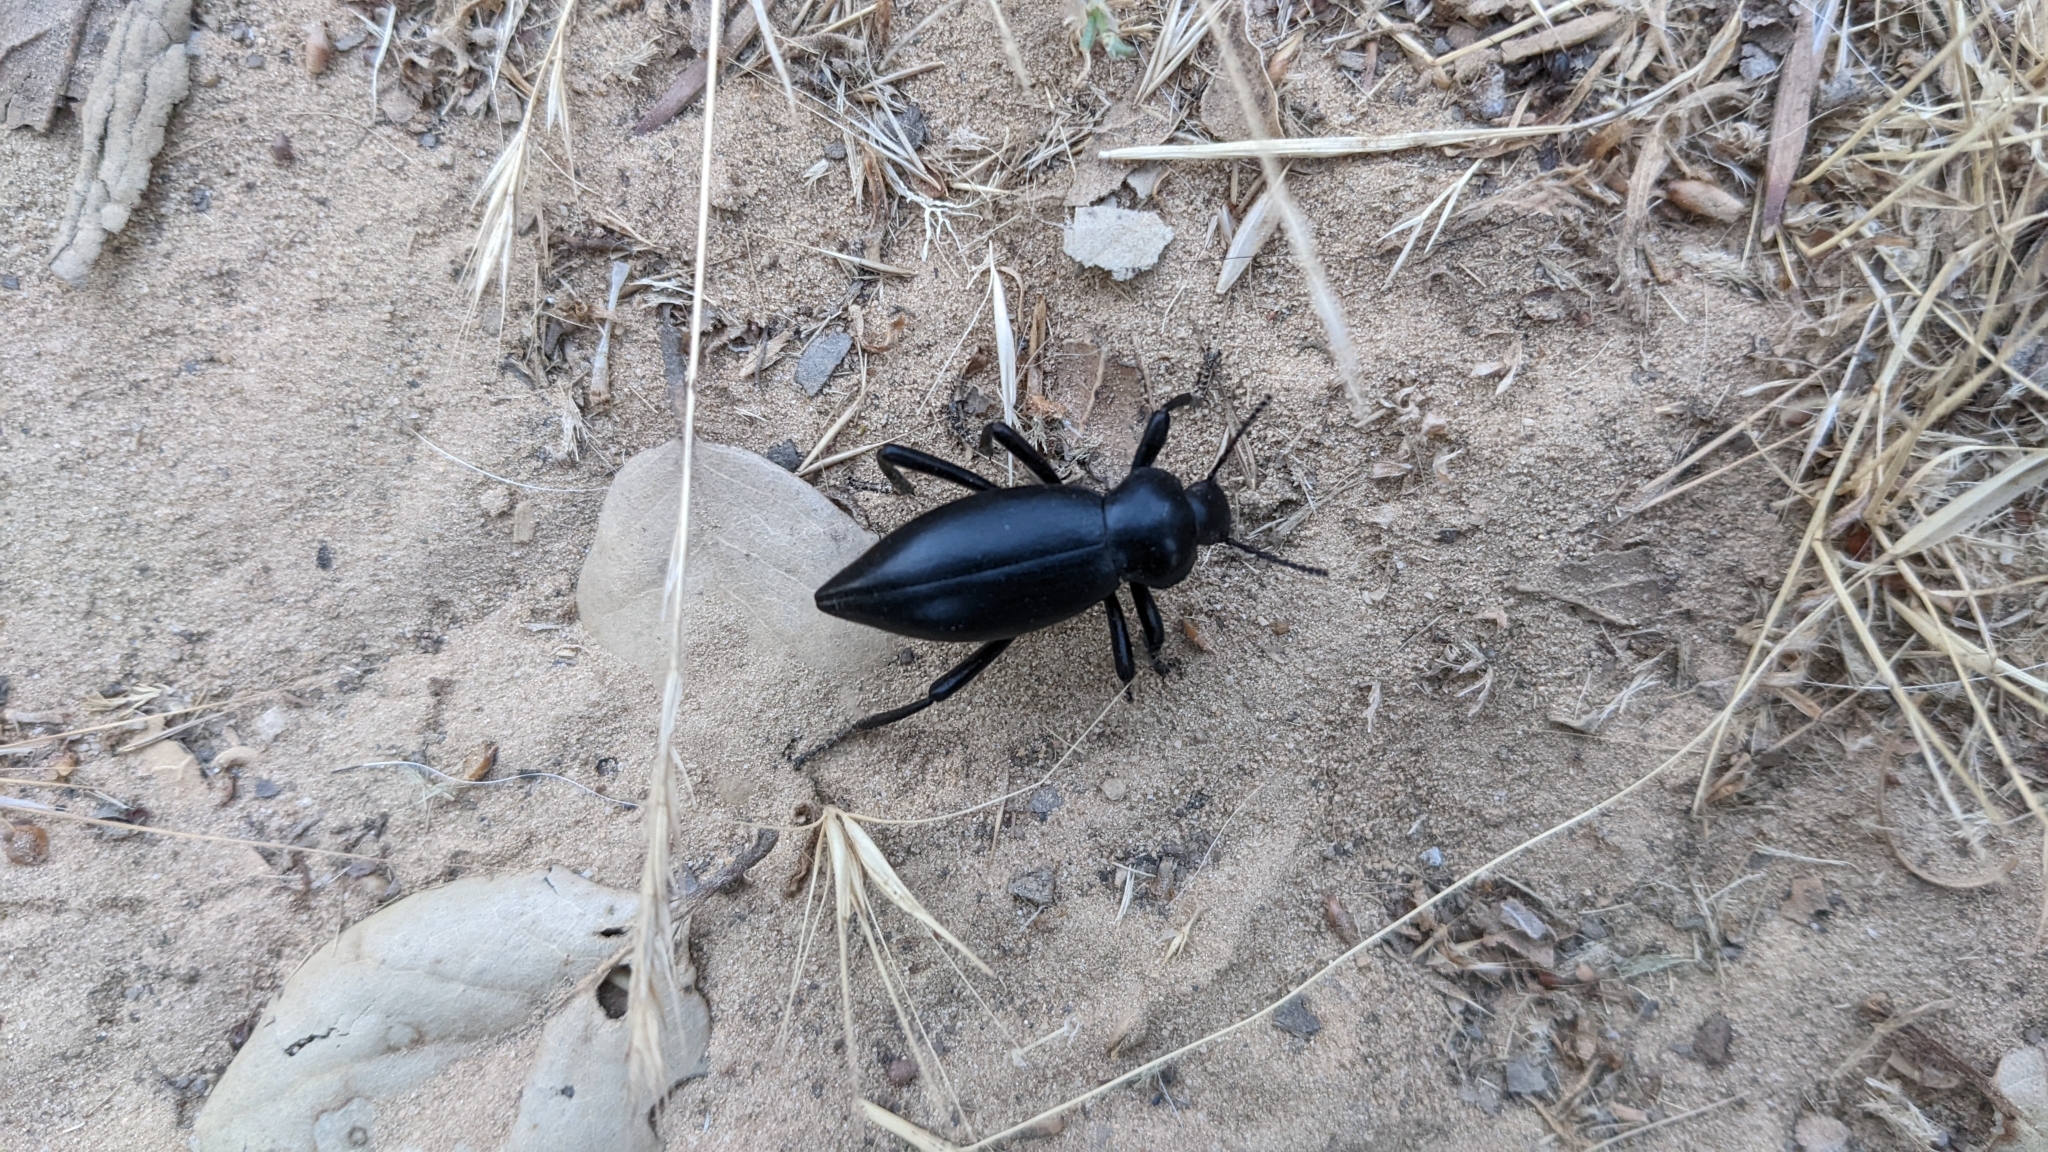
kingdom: Animalia
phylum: Arthropoda
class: Insecta
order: Coleoptera
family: Tenebrionidae
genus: Eleodes
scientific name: Eleodes acuticauda
